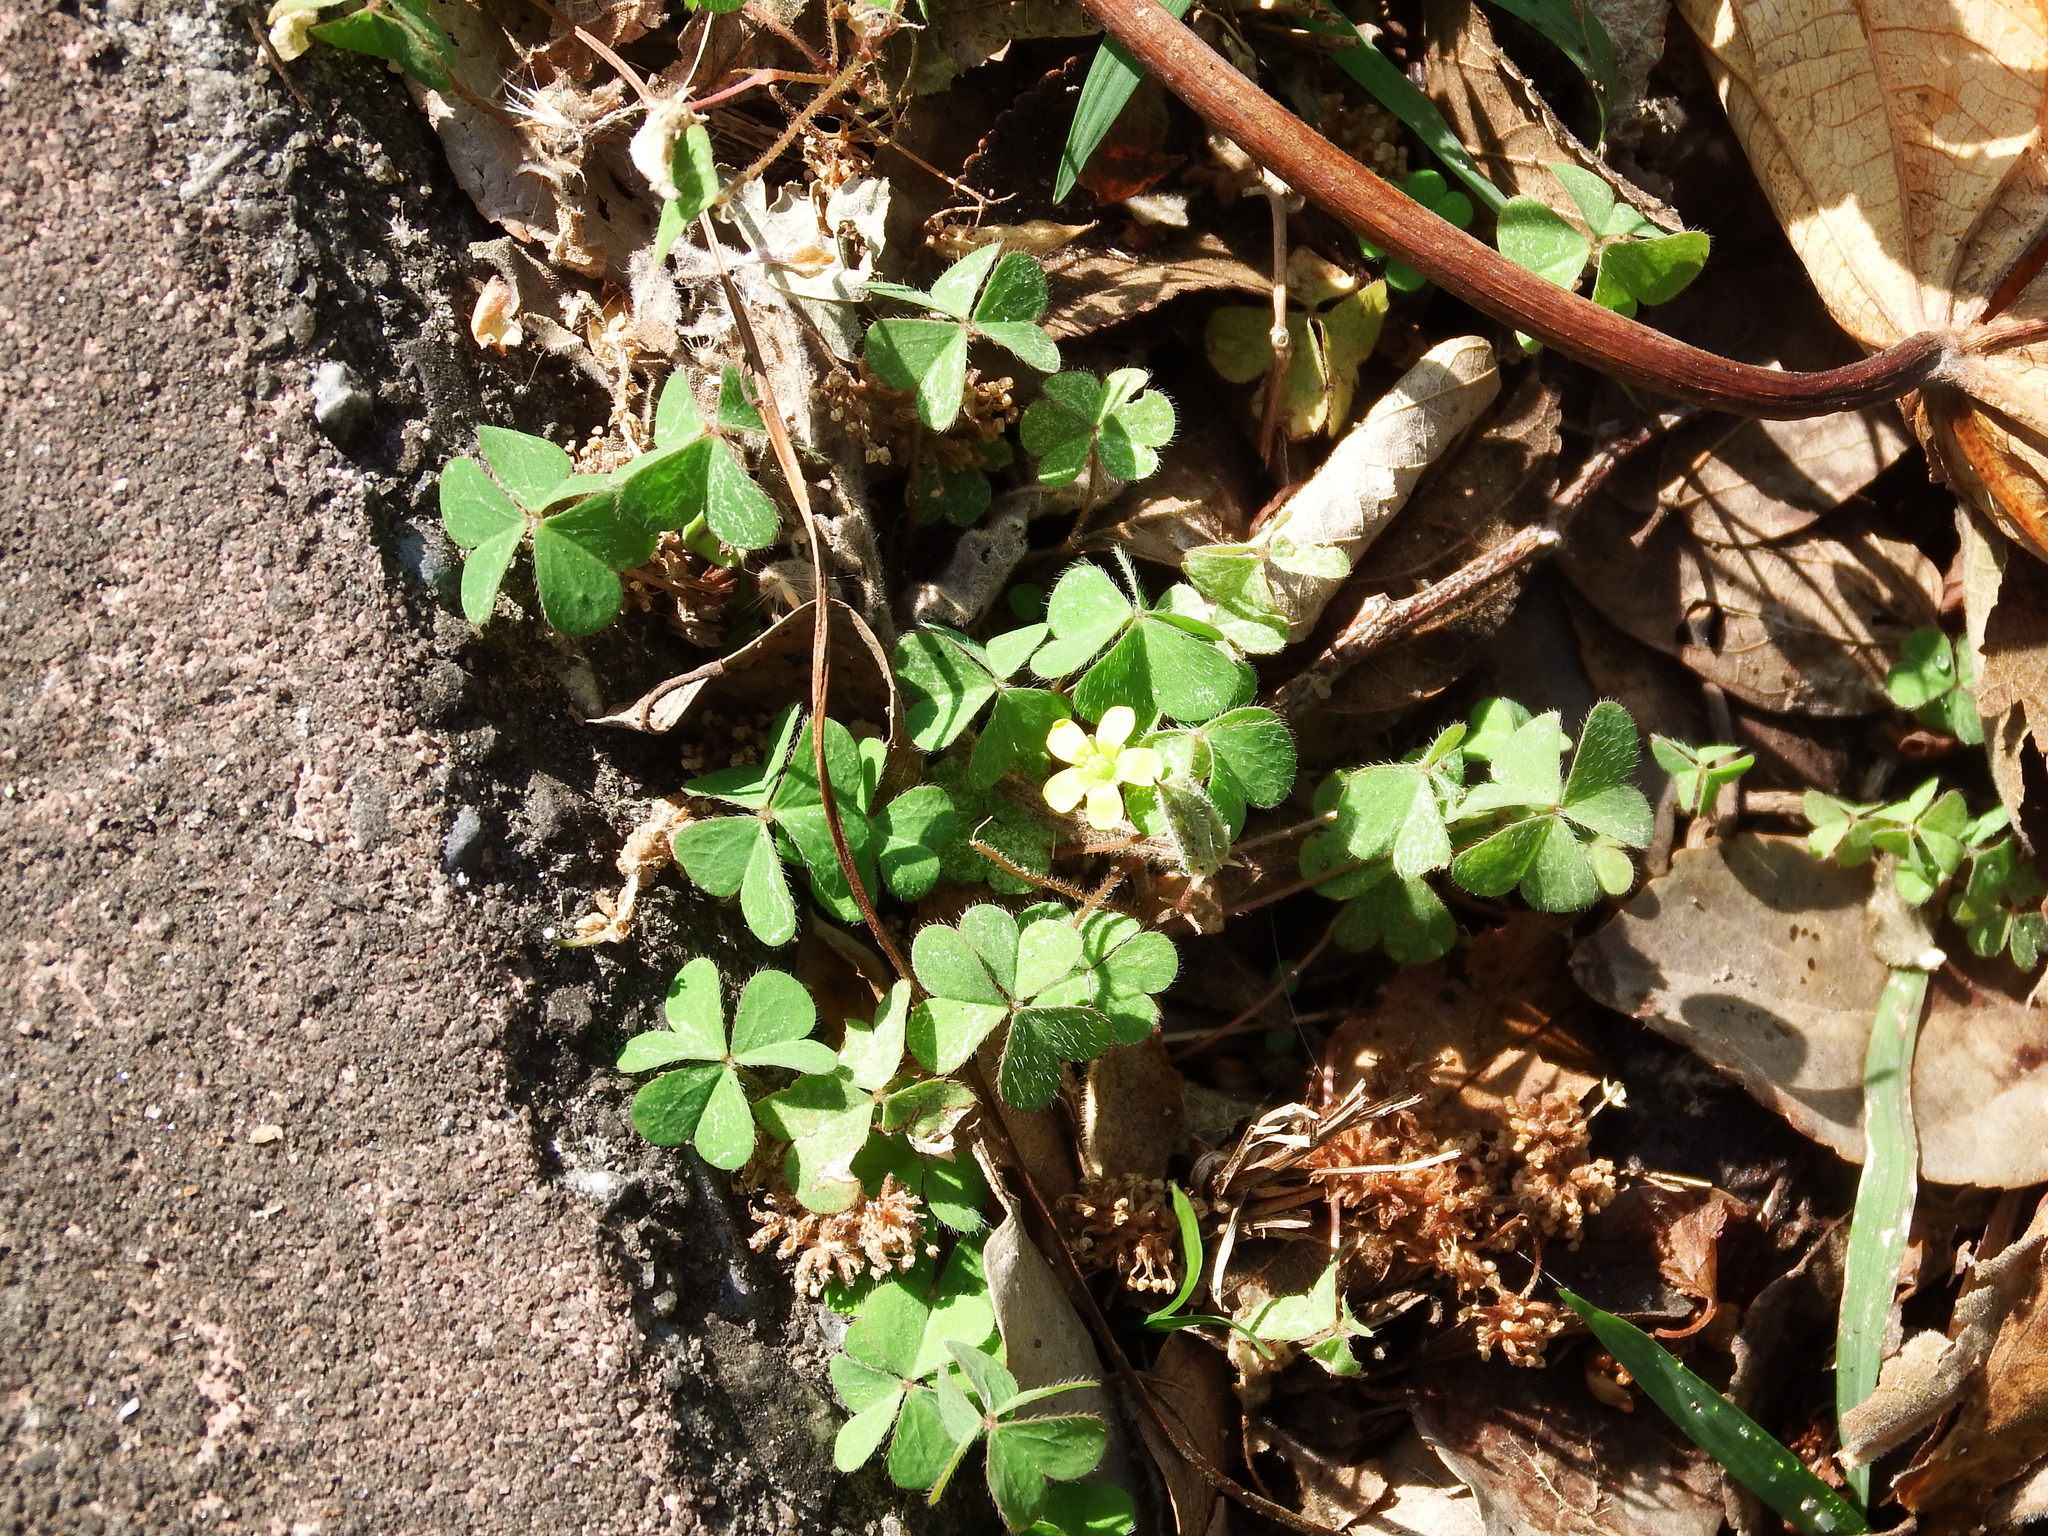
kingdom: Plantae
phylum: Tracheophyta
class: Magnoliopsida
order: Oxalidales
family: Oxalidaceae
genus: Oxalis
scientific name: Oxalis corniculata
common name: Procumbent yellow-sorrel
